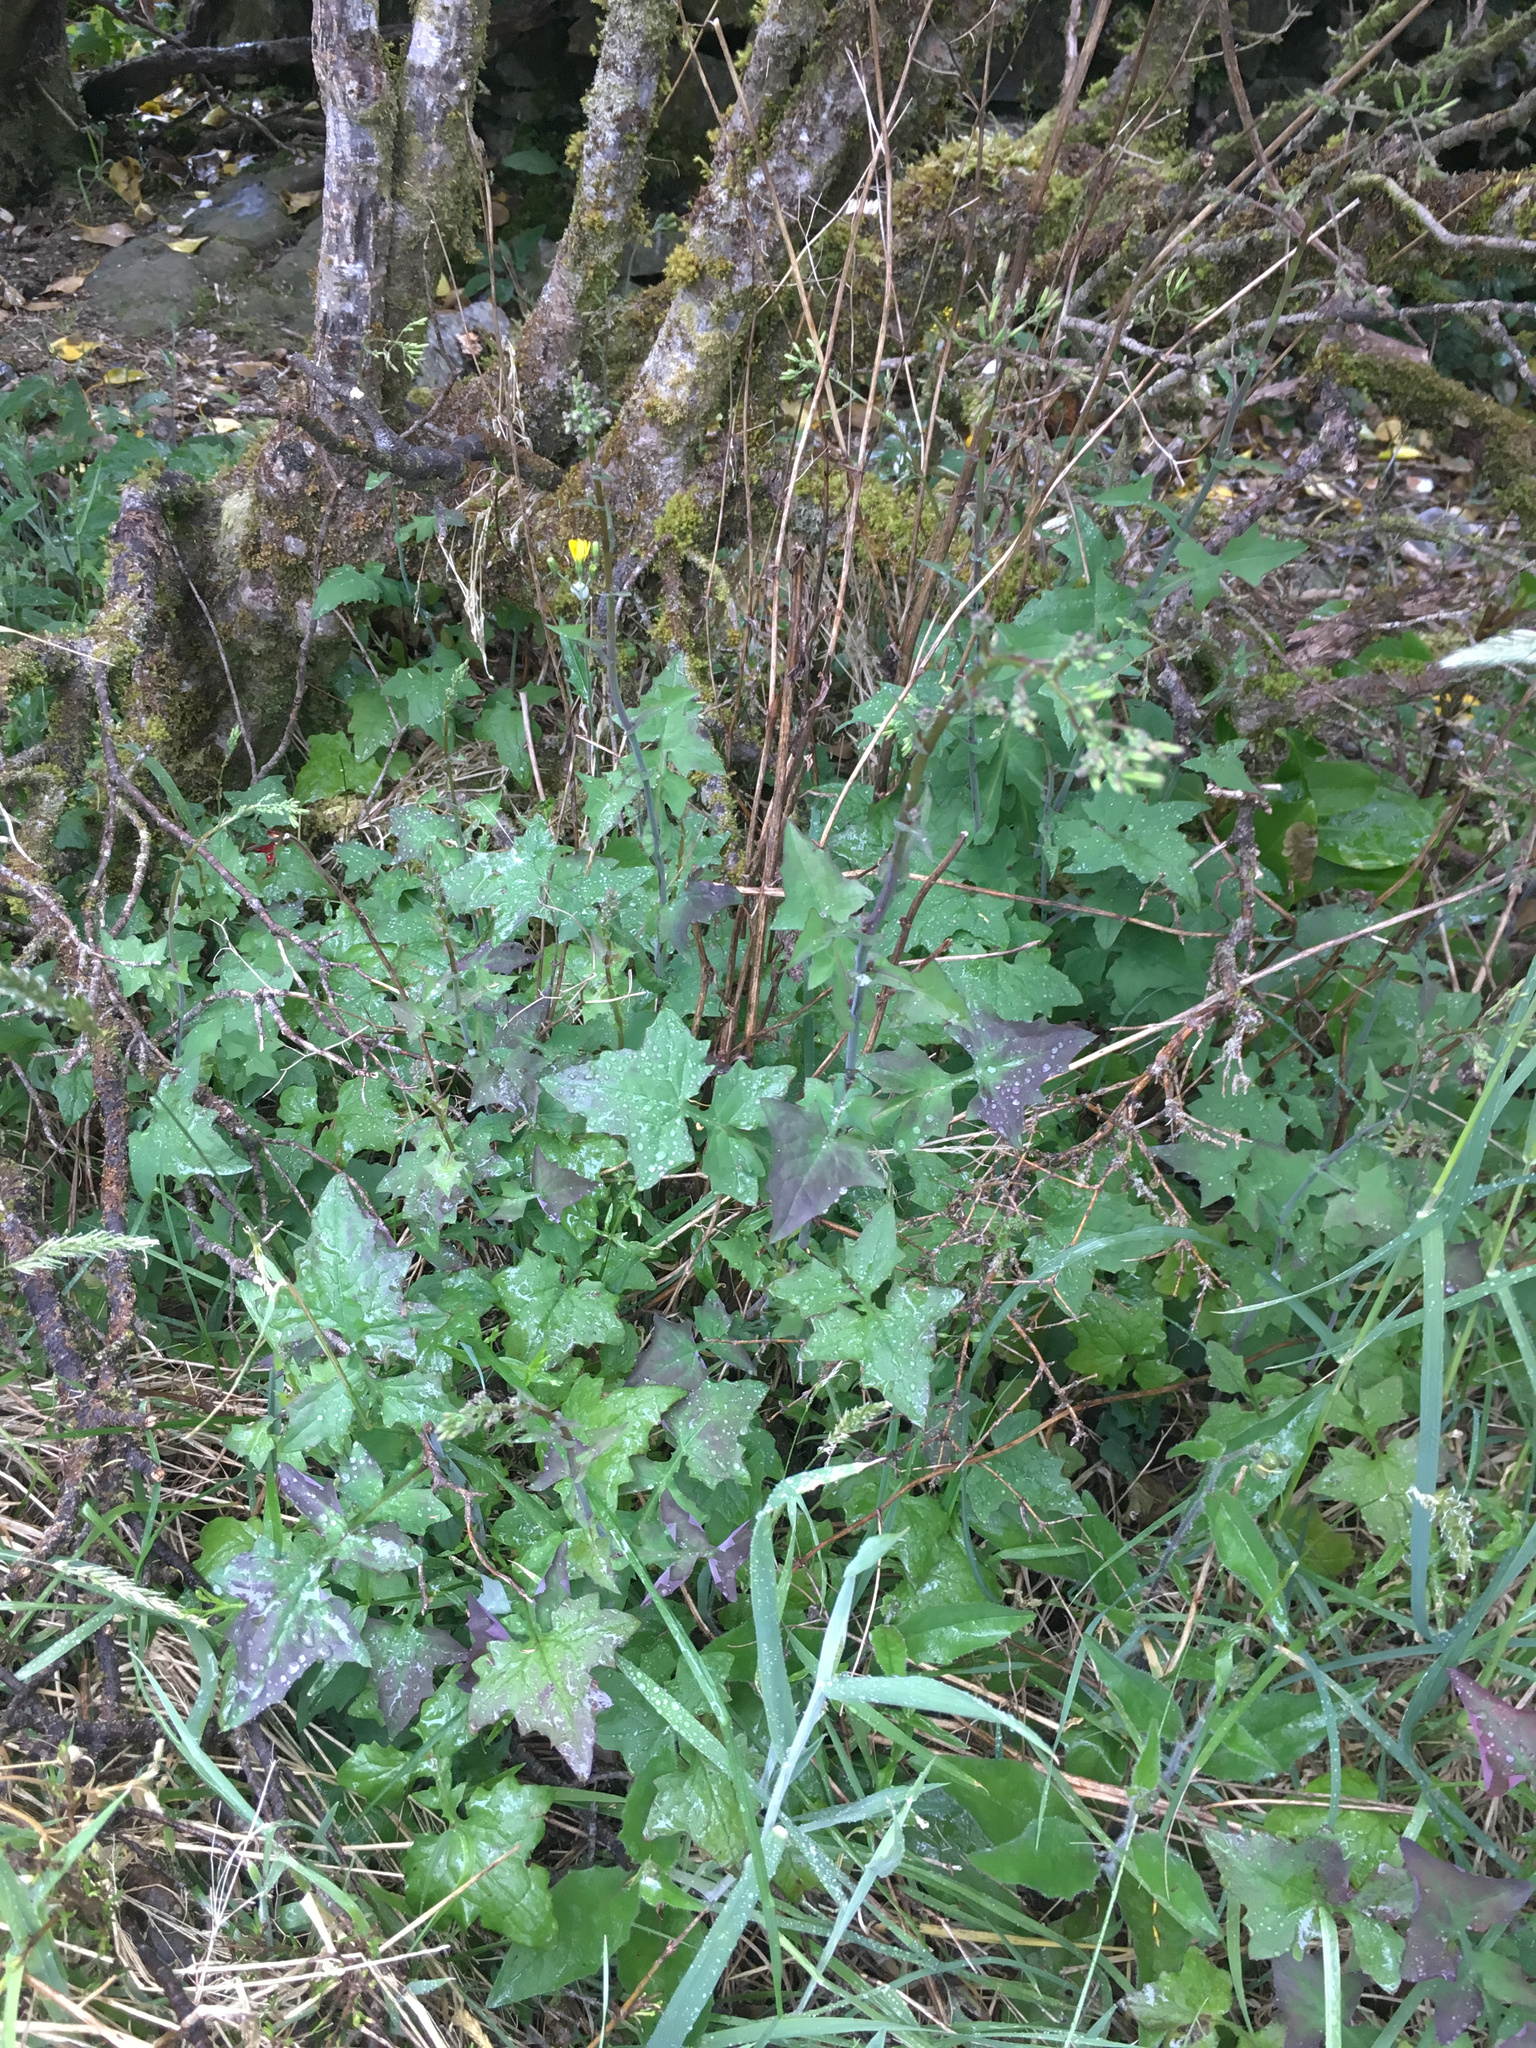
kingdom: Plantae
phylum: Tracheophyta
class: Magnoliopsida
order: Asterales
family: Asteraceae
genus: Mycelis
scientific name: Mycelis muralis
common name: Wall lettuce
